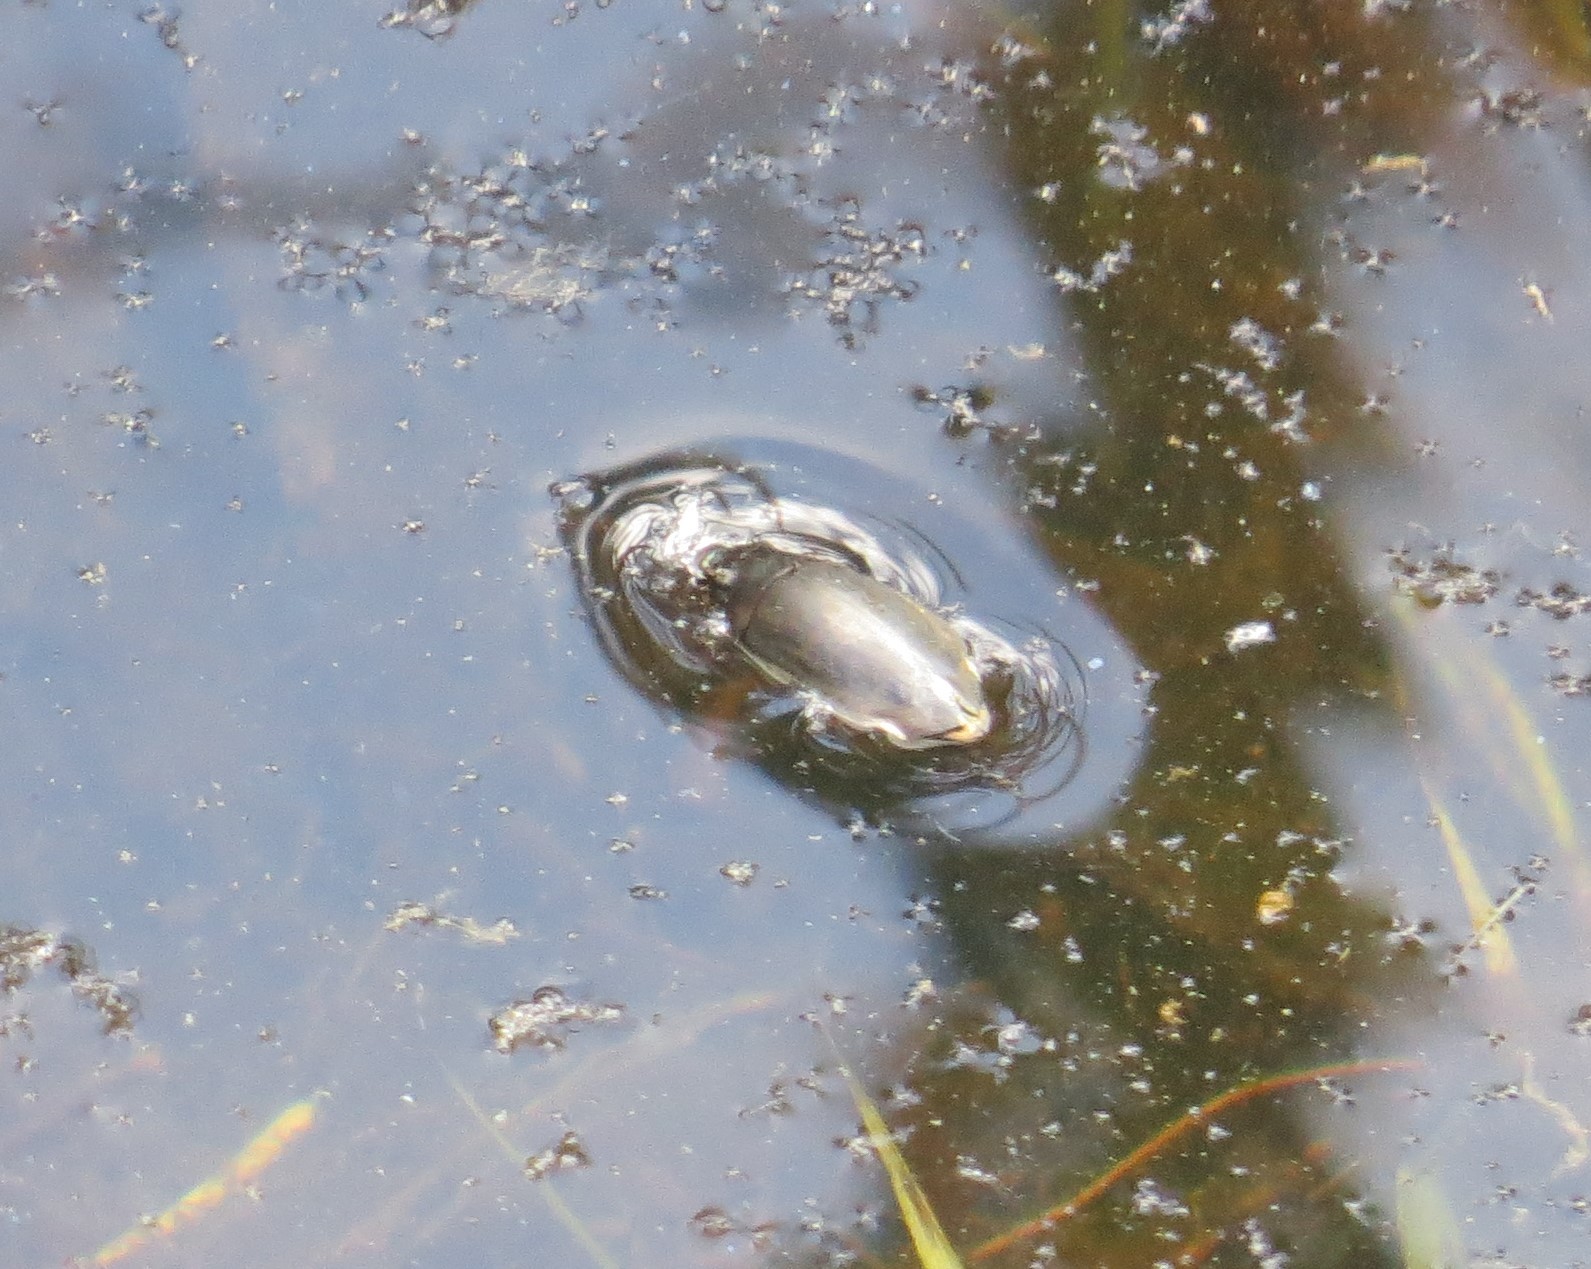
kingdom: Animalia
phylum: Arthropoda
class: Insecta
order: Coleoptera
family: Gyrinidae
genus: Dineutus
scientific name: Dineutus
